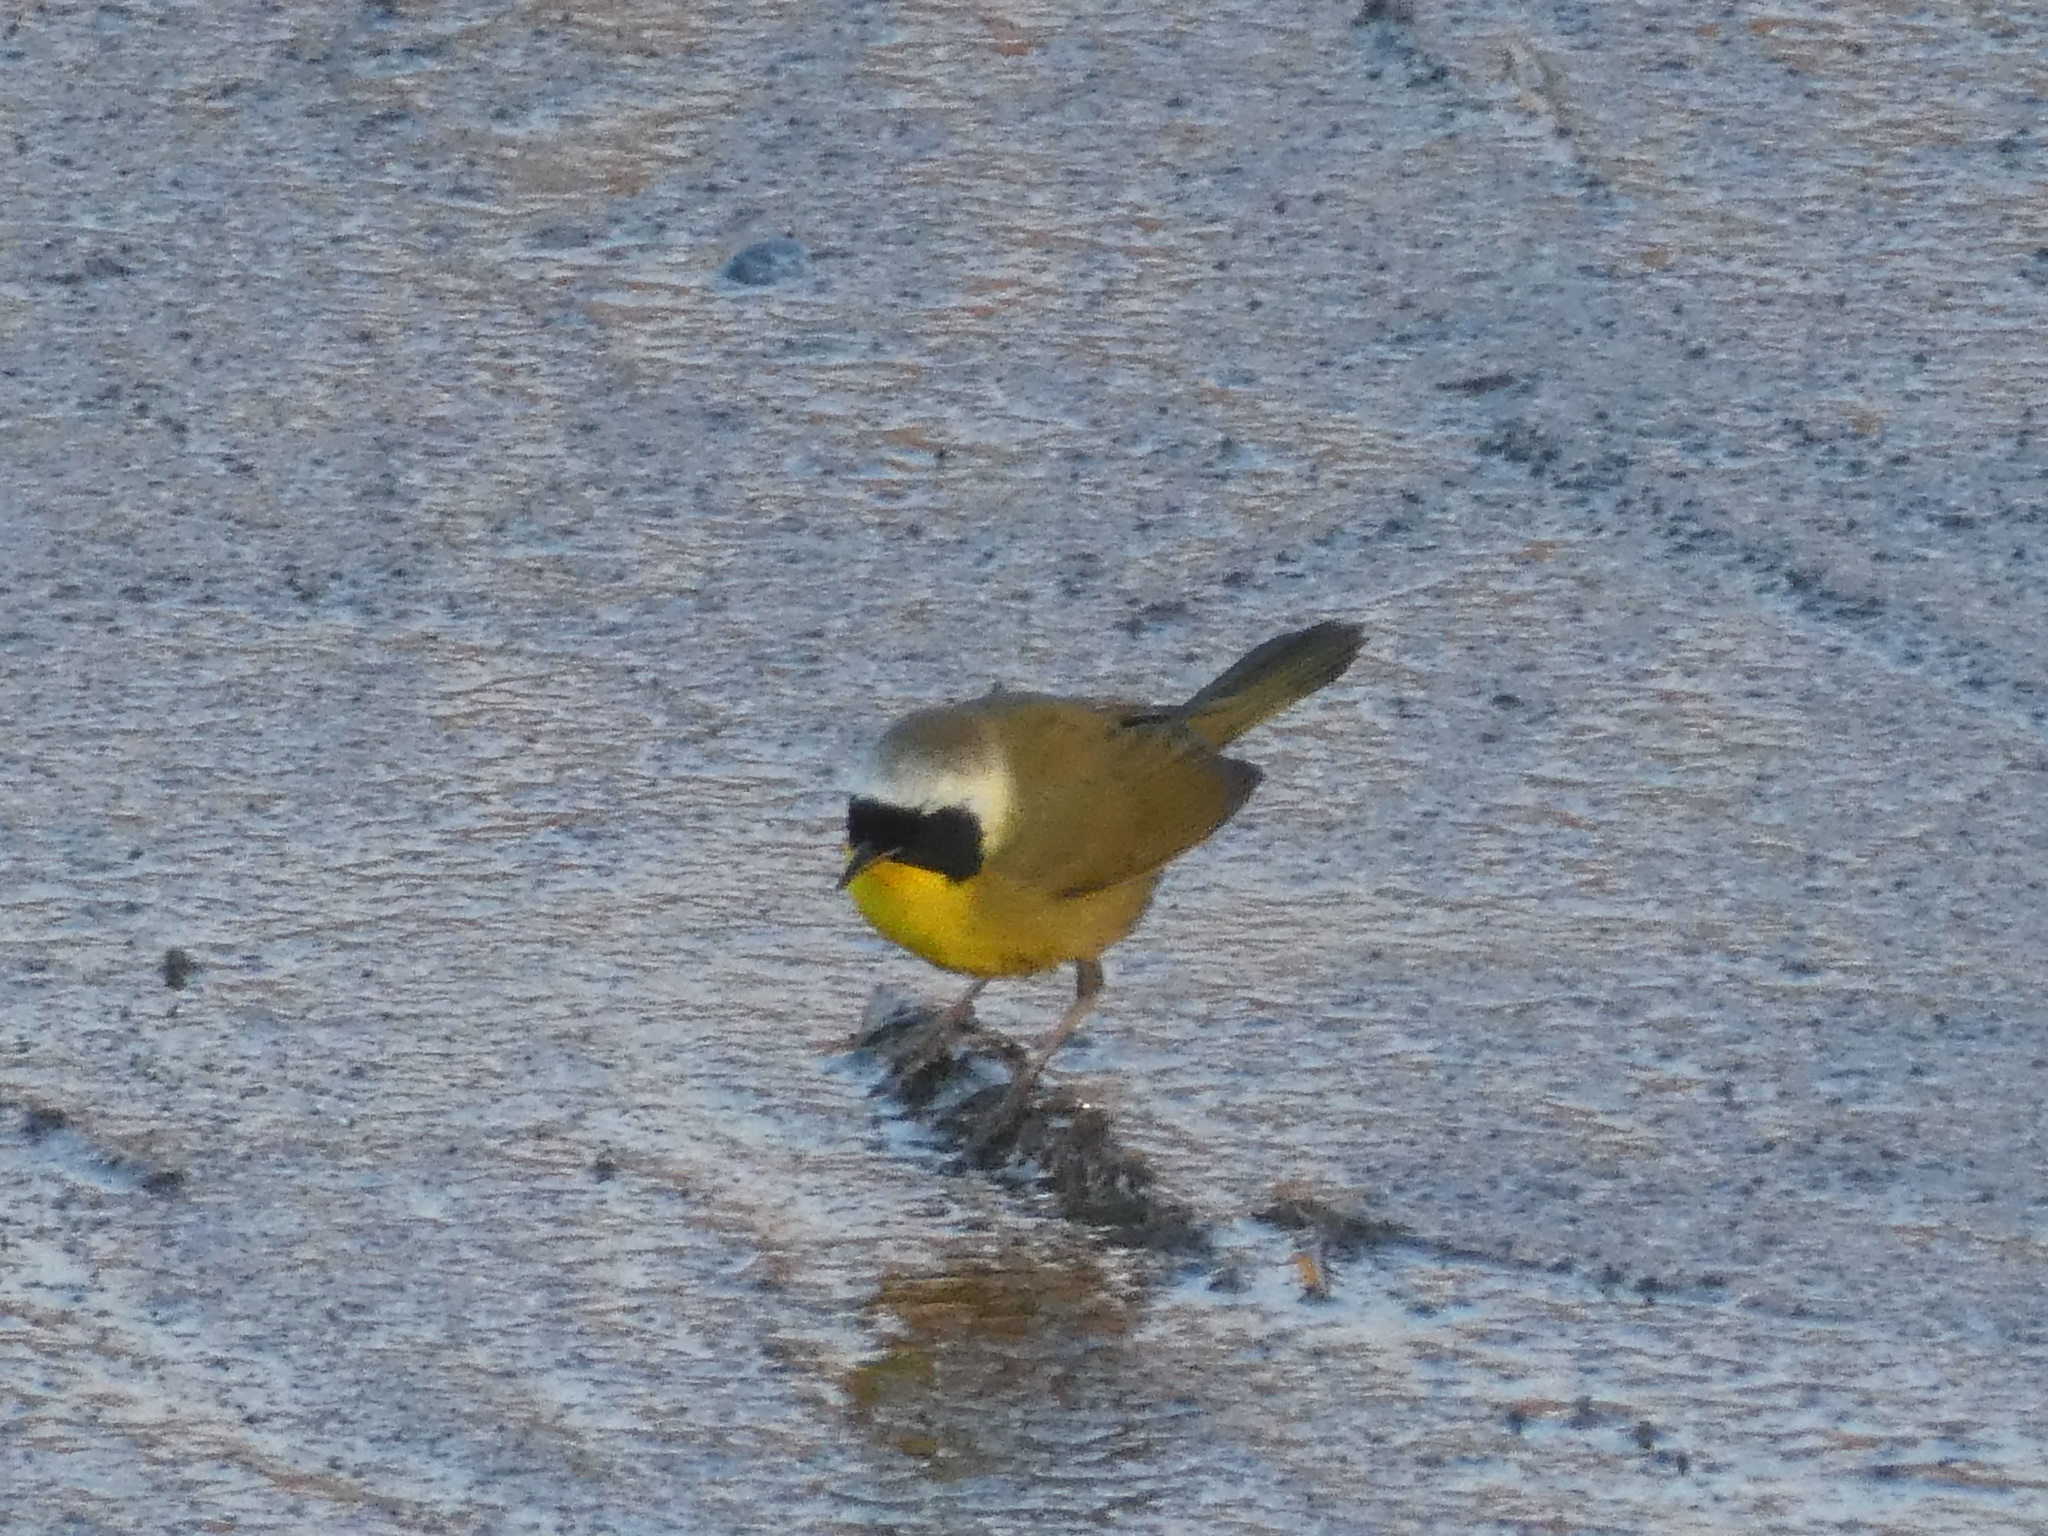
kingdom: Animalia
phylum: Chordata
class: Aves
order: Passeriformes
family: Parulidae
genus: Geothlypis
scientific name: Geothlypis trichas
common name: Common yellowthroat
